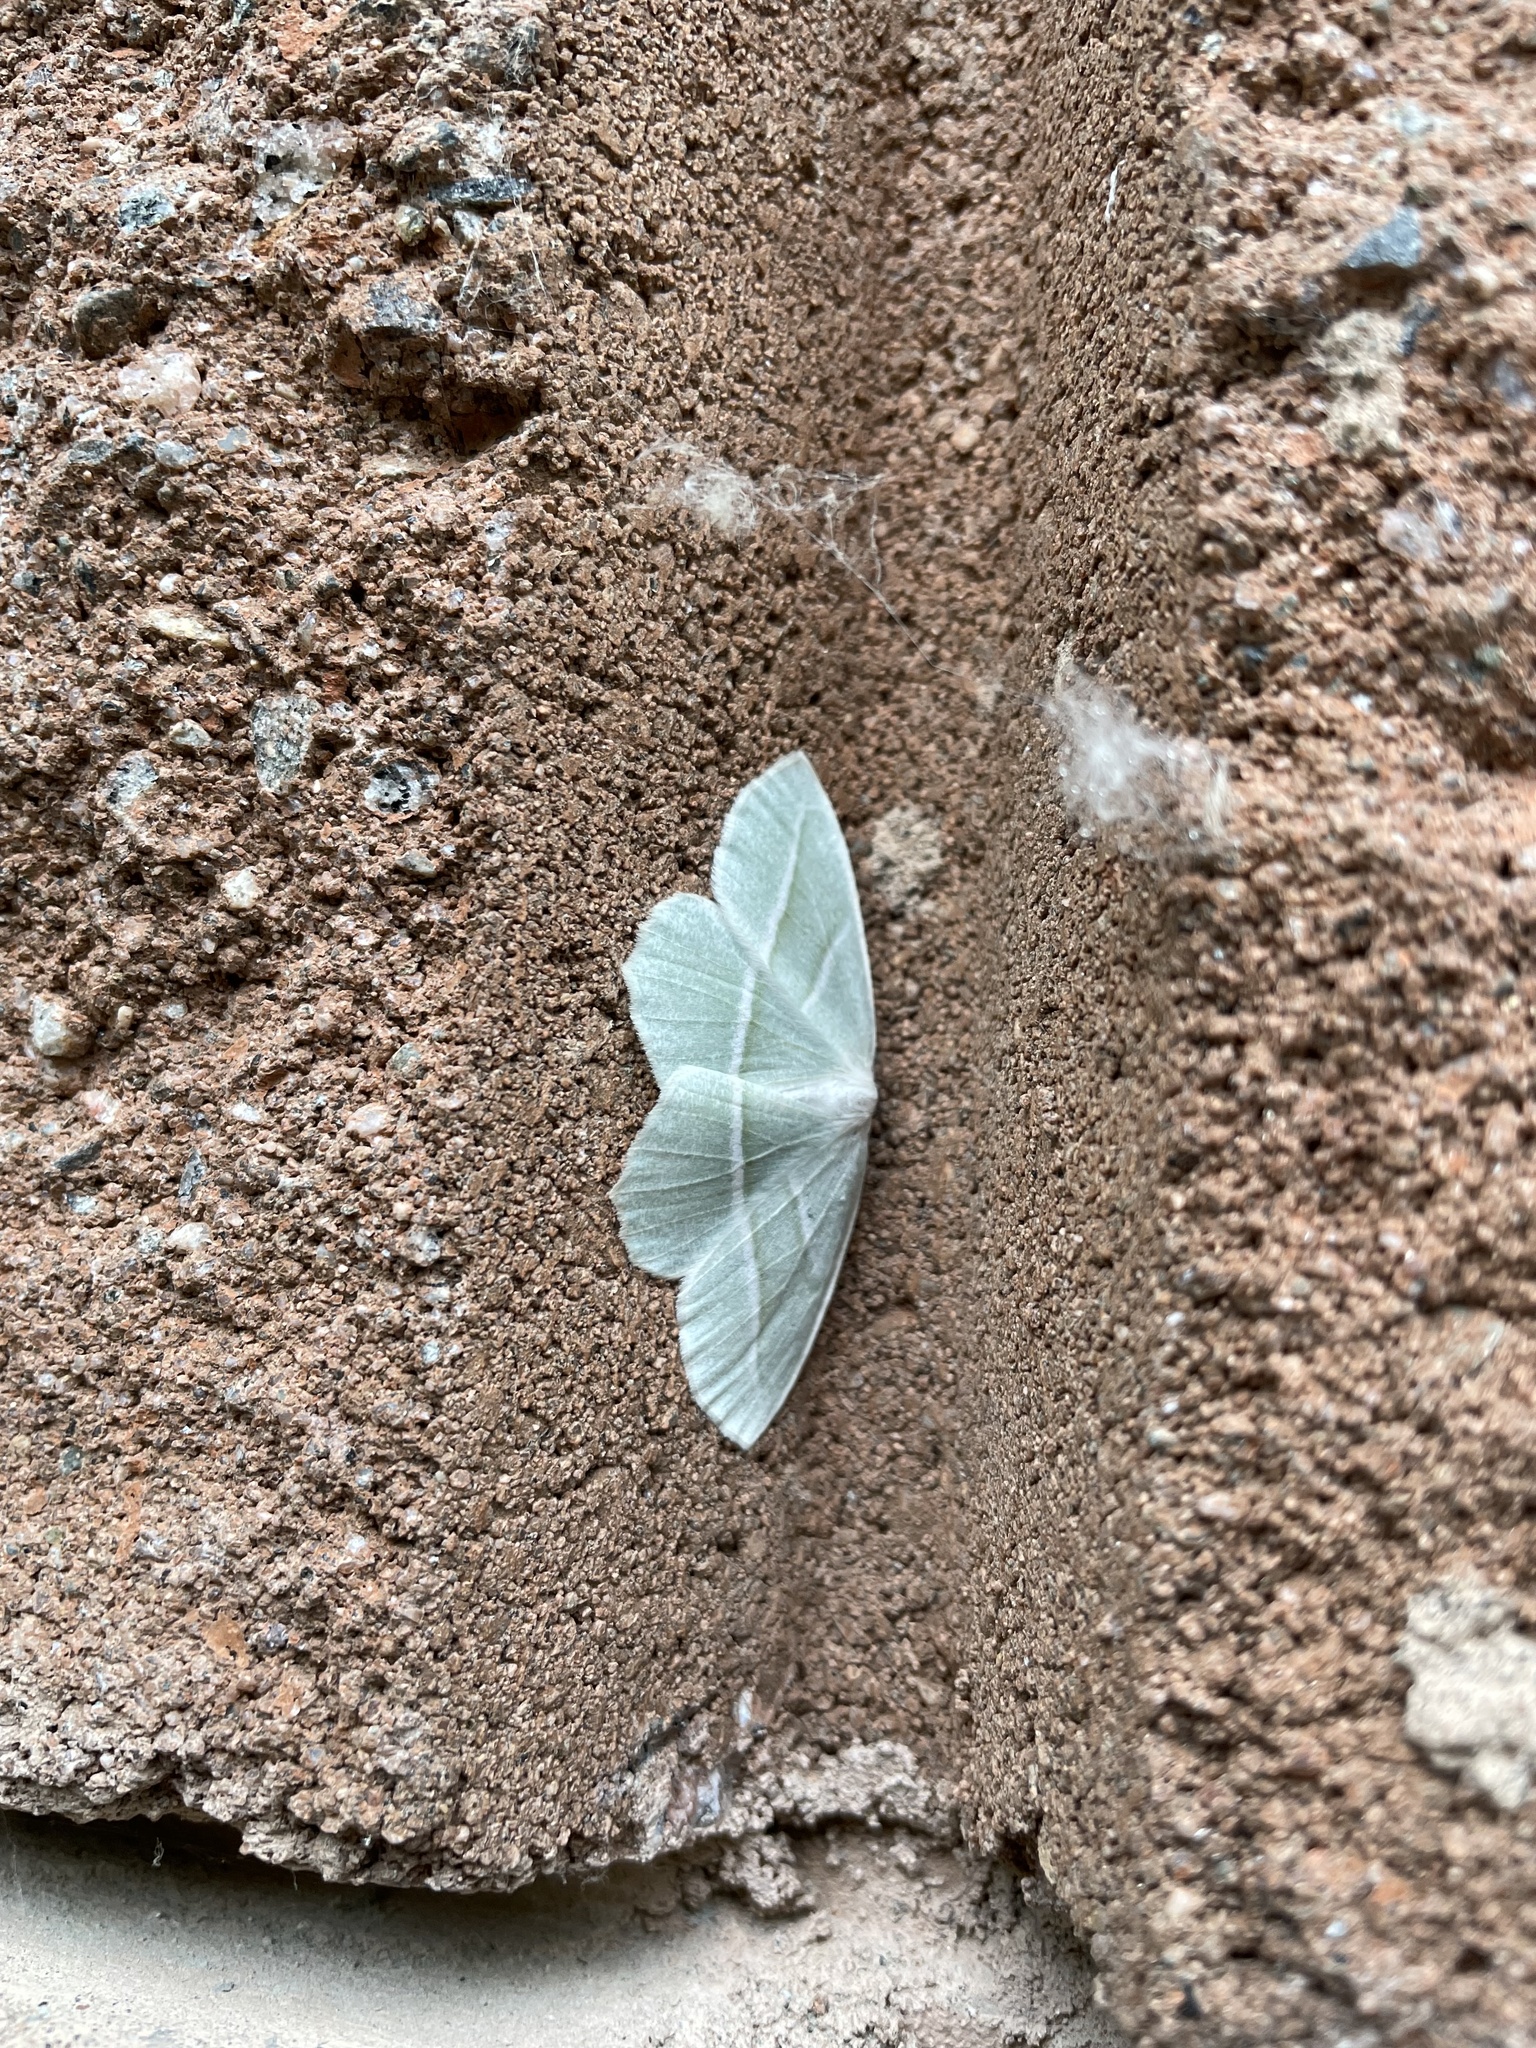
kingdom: Animalia
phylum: Arthropoda
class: Insecta
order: Lepidoptera
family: Geometridae
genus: Campaea
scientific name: Campaea perlata
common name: Fringed looper
